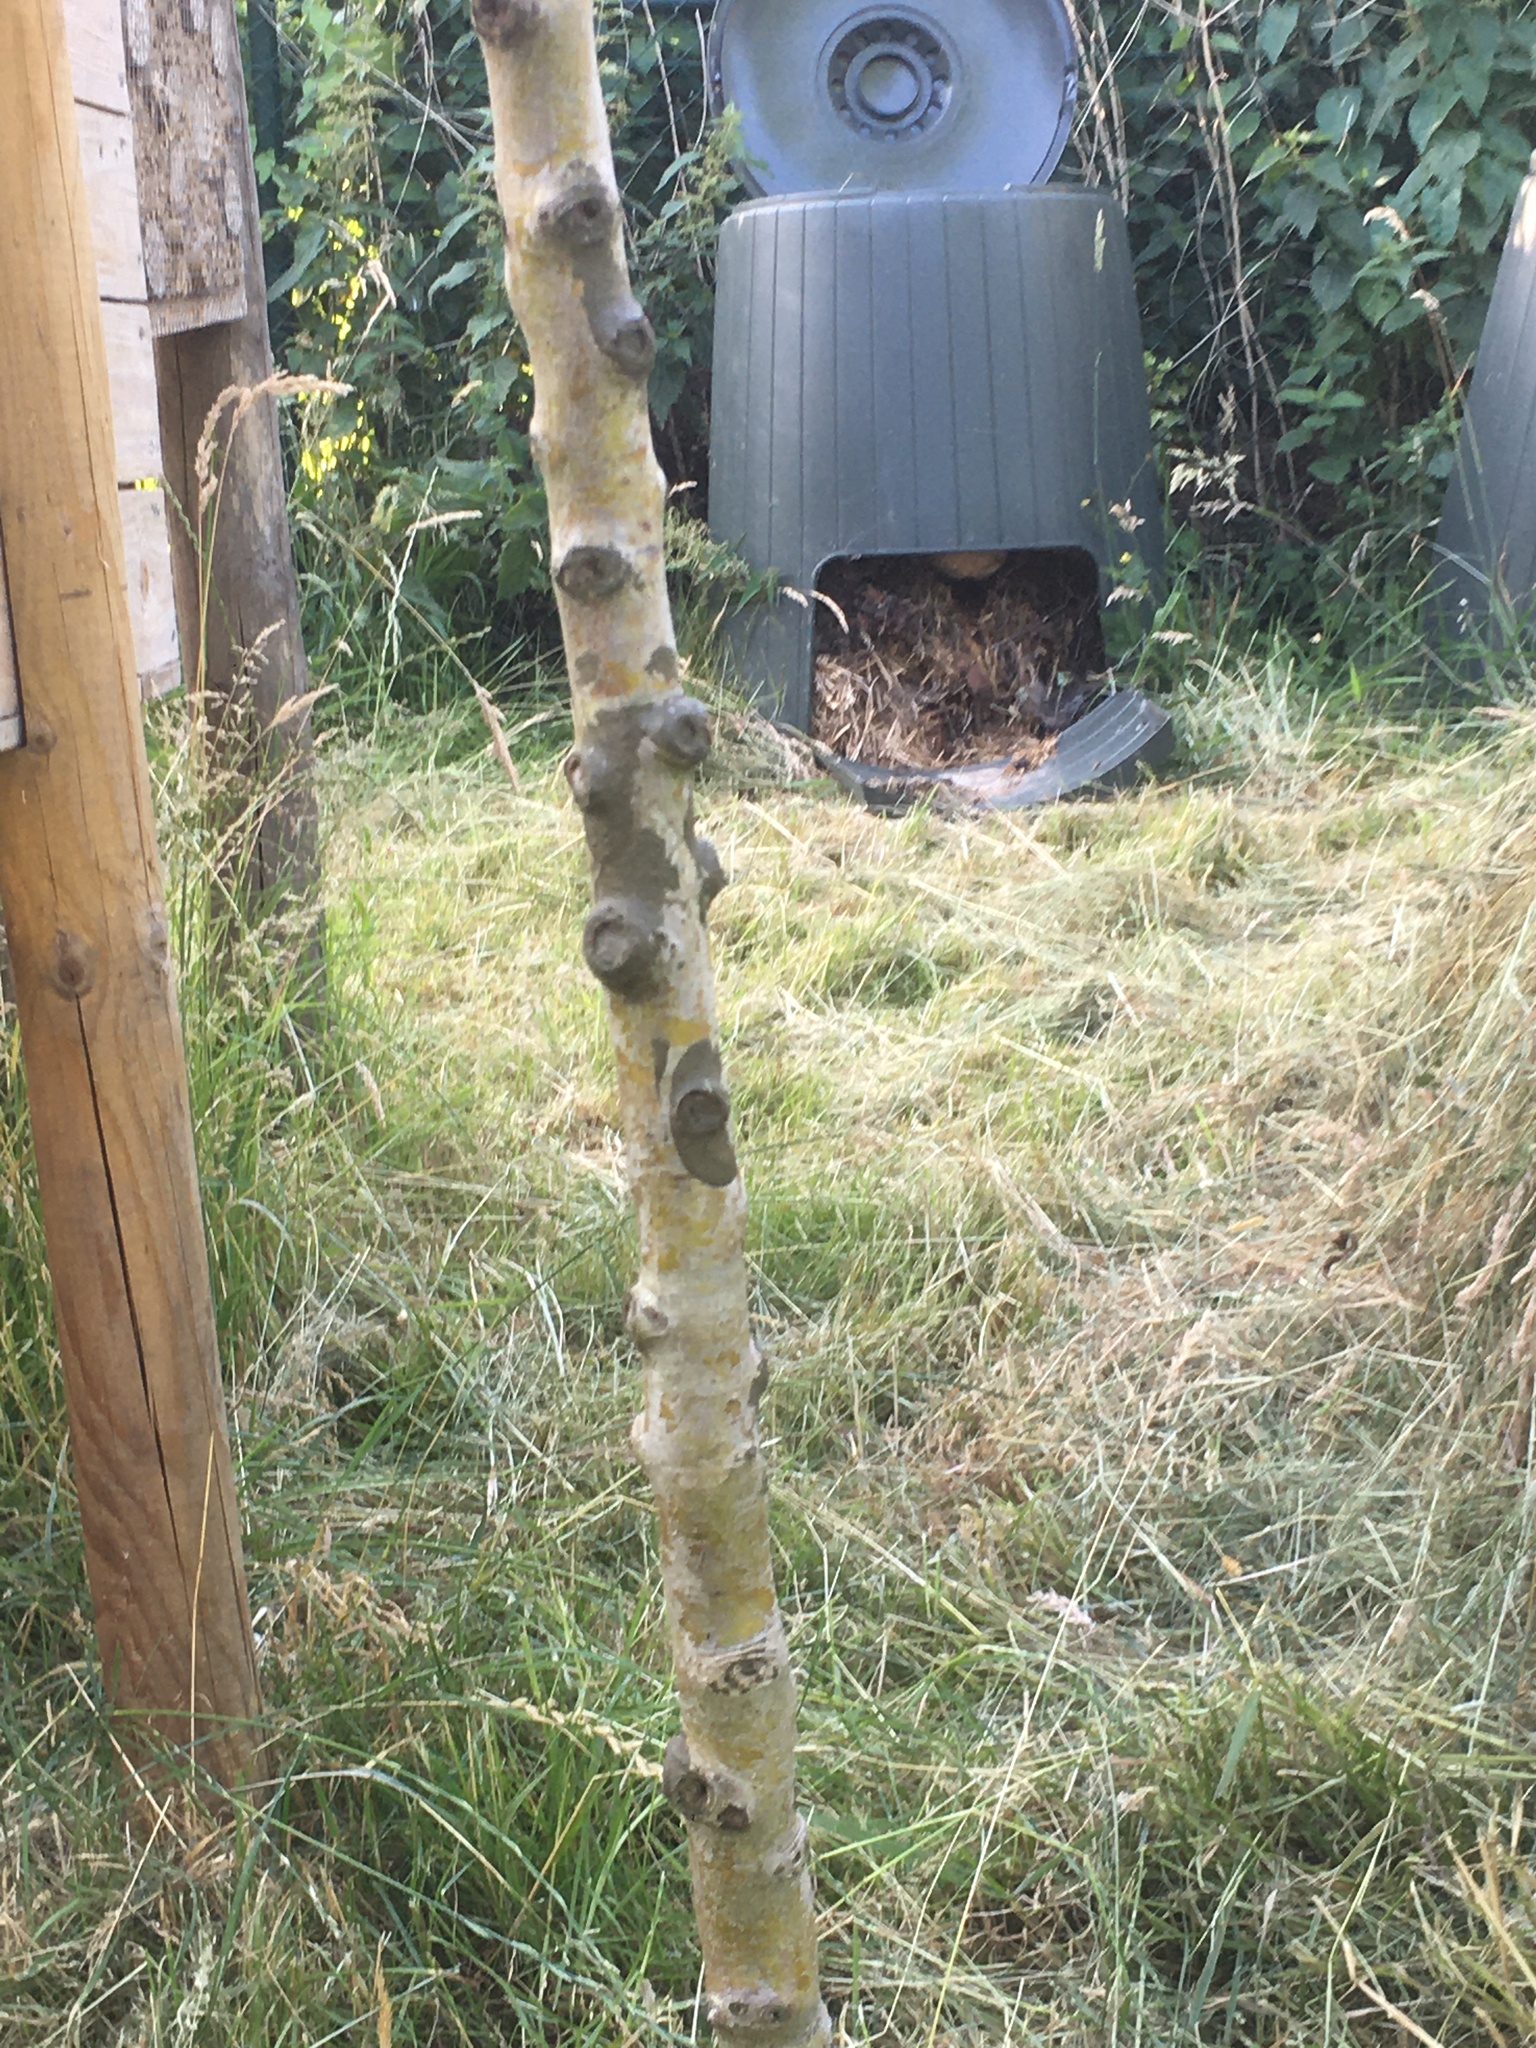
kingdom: Animalia
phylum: Arthropoda
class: Insecta
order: Hymenoptera
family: Vespidae
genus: Vespa
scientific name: Vespa velutina
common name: Asian hornet
